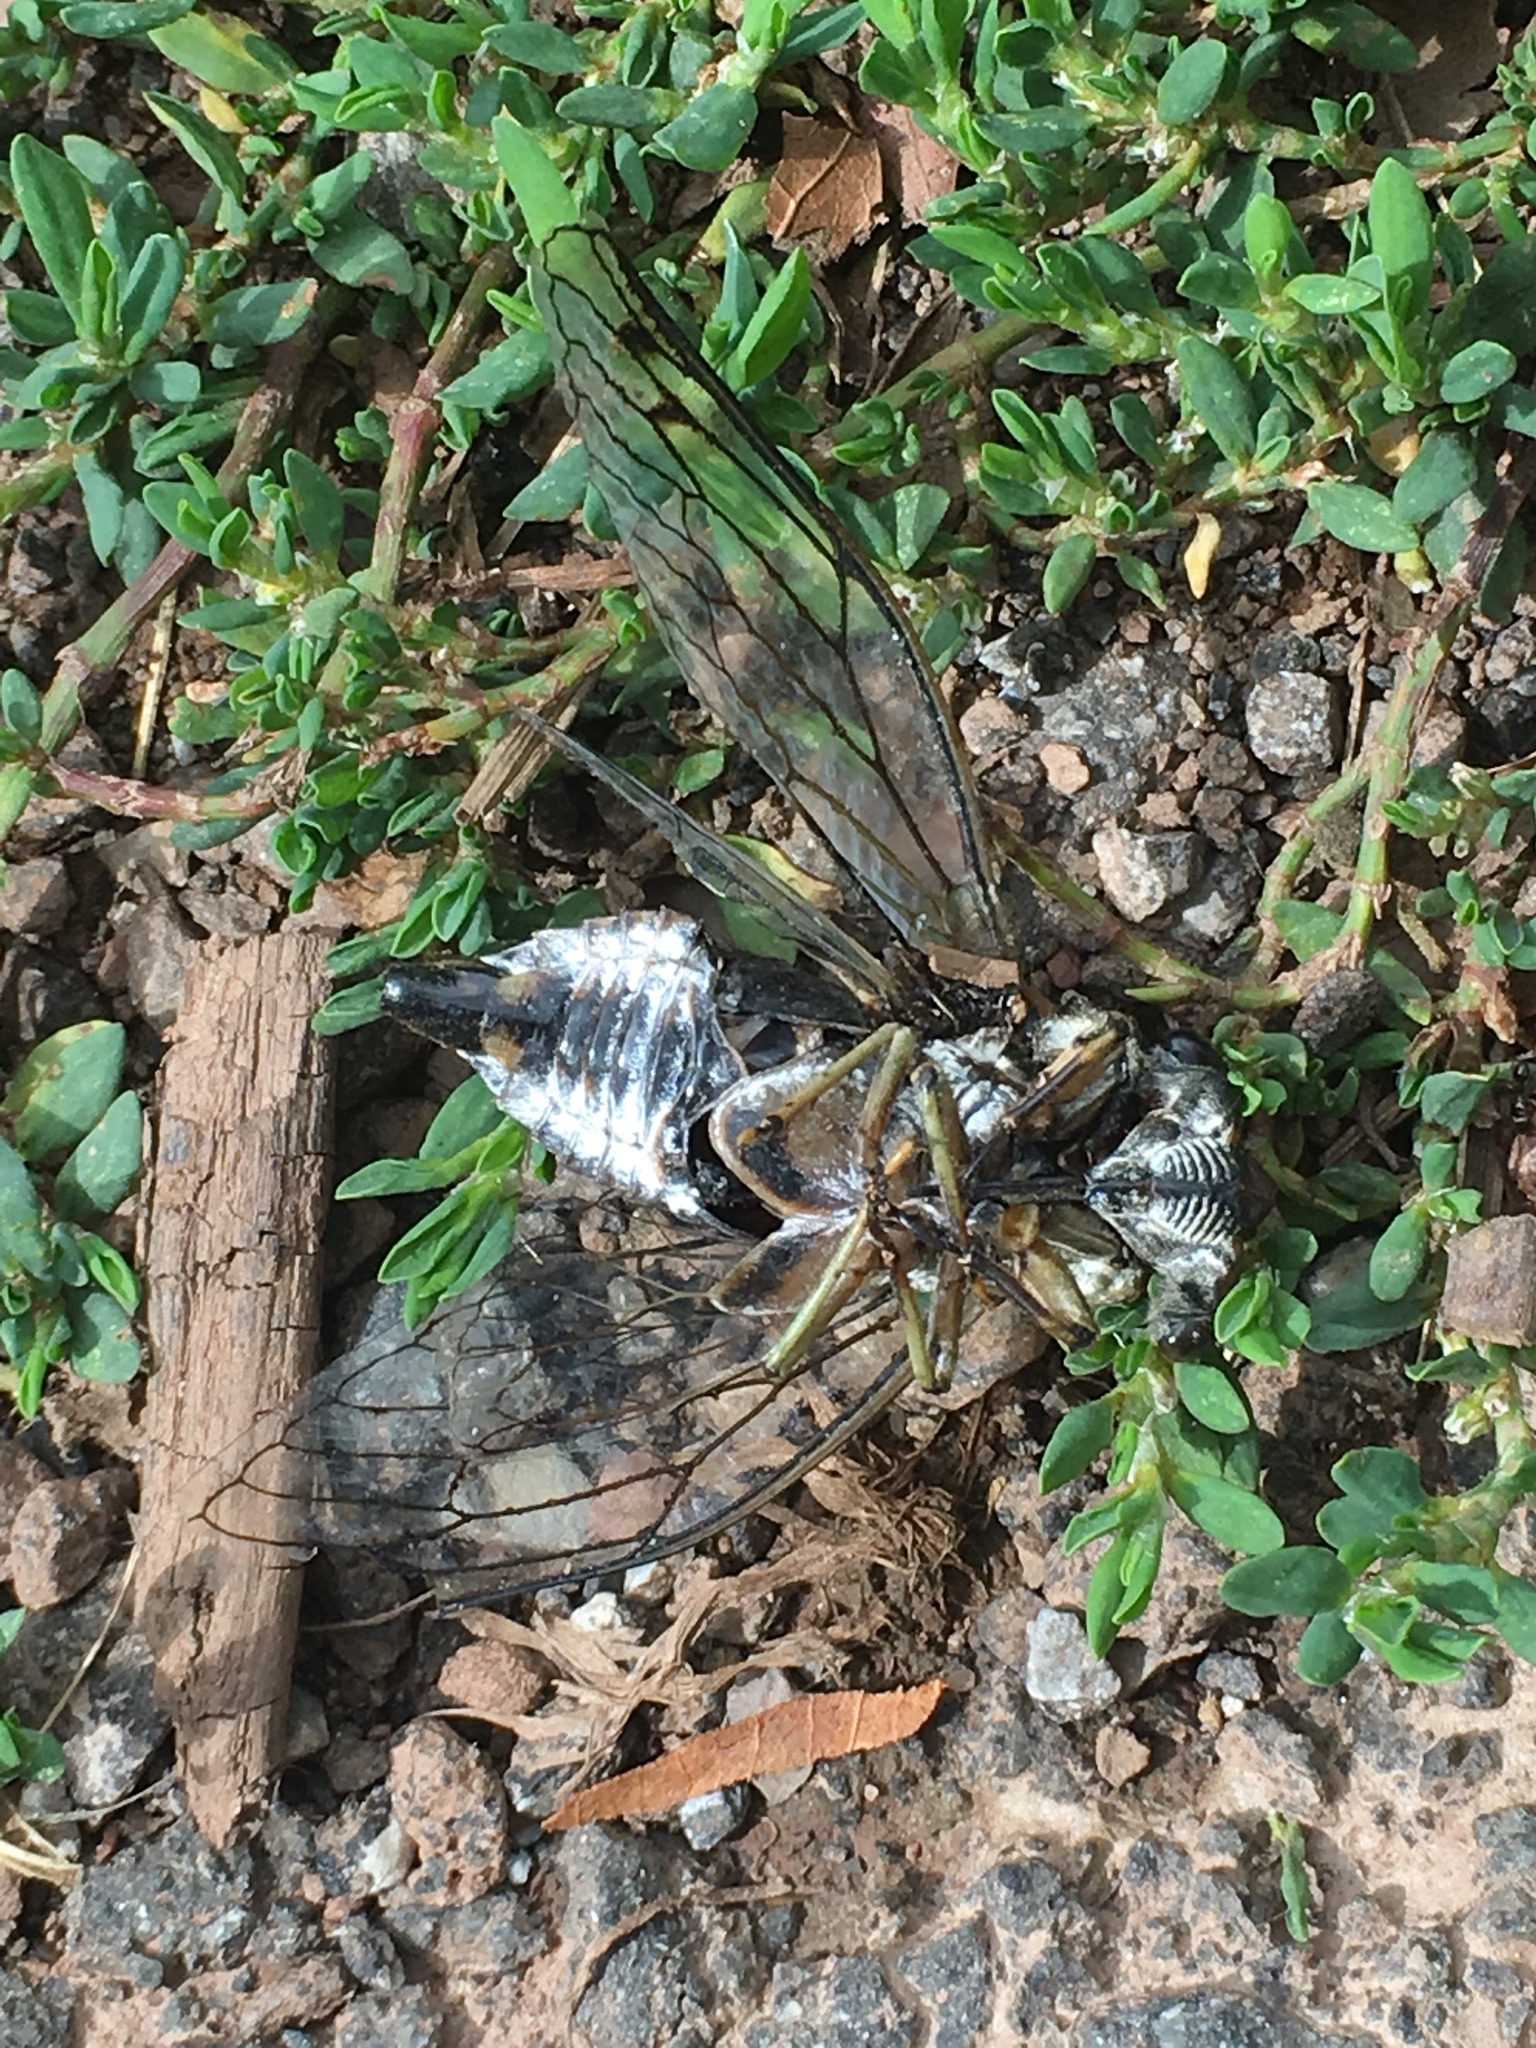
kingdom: Animalia
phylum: Arthropoda
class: Insecta
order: Hemiptera
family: Cicadidae
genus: Neotibicen
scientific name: Neotibicen linnei
